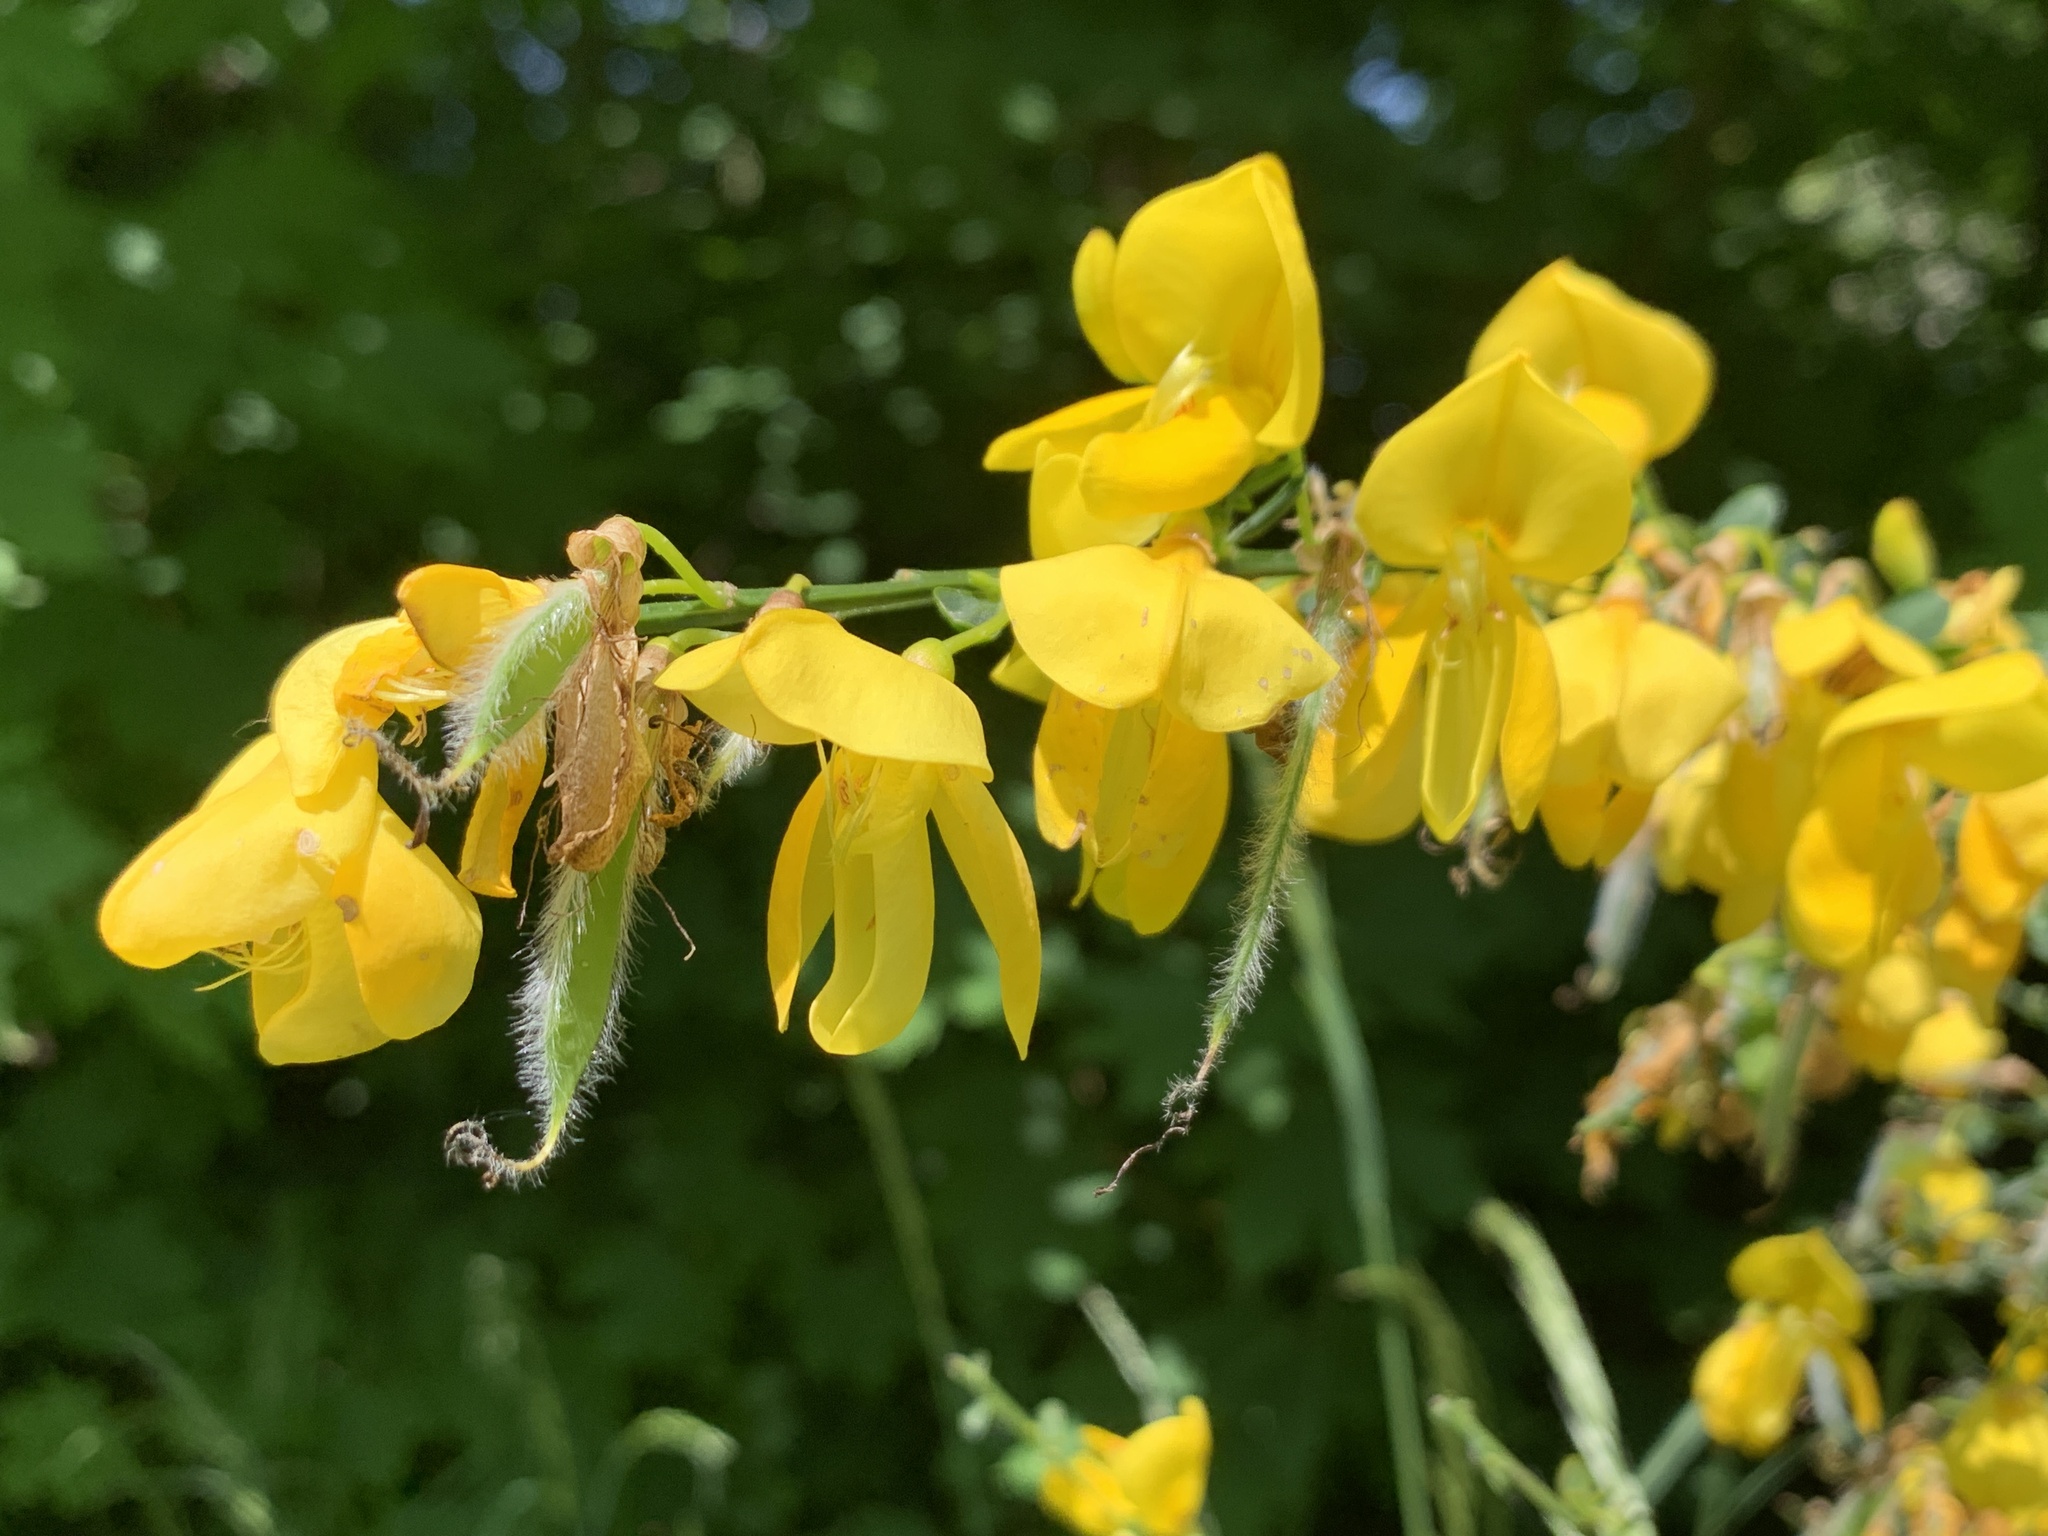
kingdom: Plantae
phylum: Tracheophyta
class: Magnoliopsida
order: Fabales
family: Fabaceae
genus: Cytisus
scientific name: Cytisus scoparius
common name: Scotch broom
